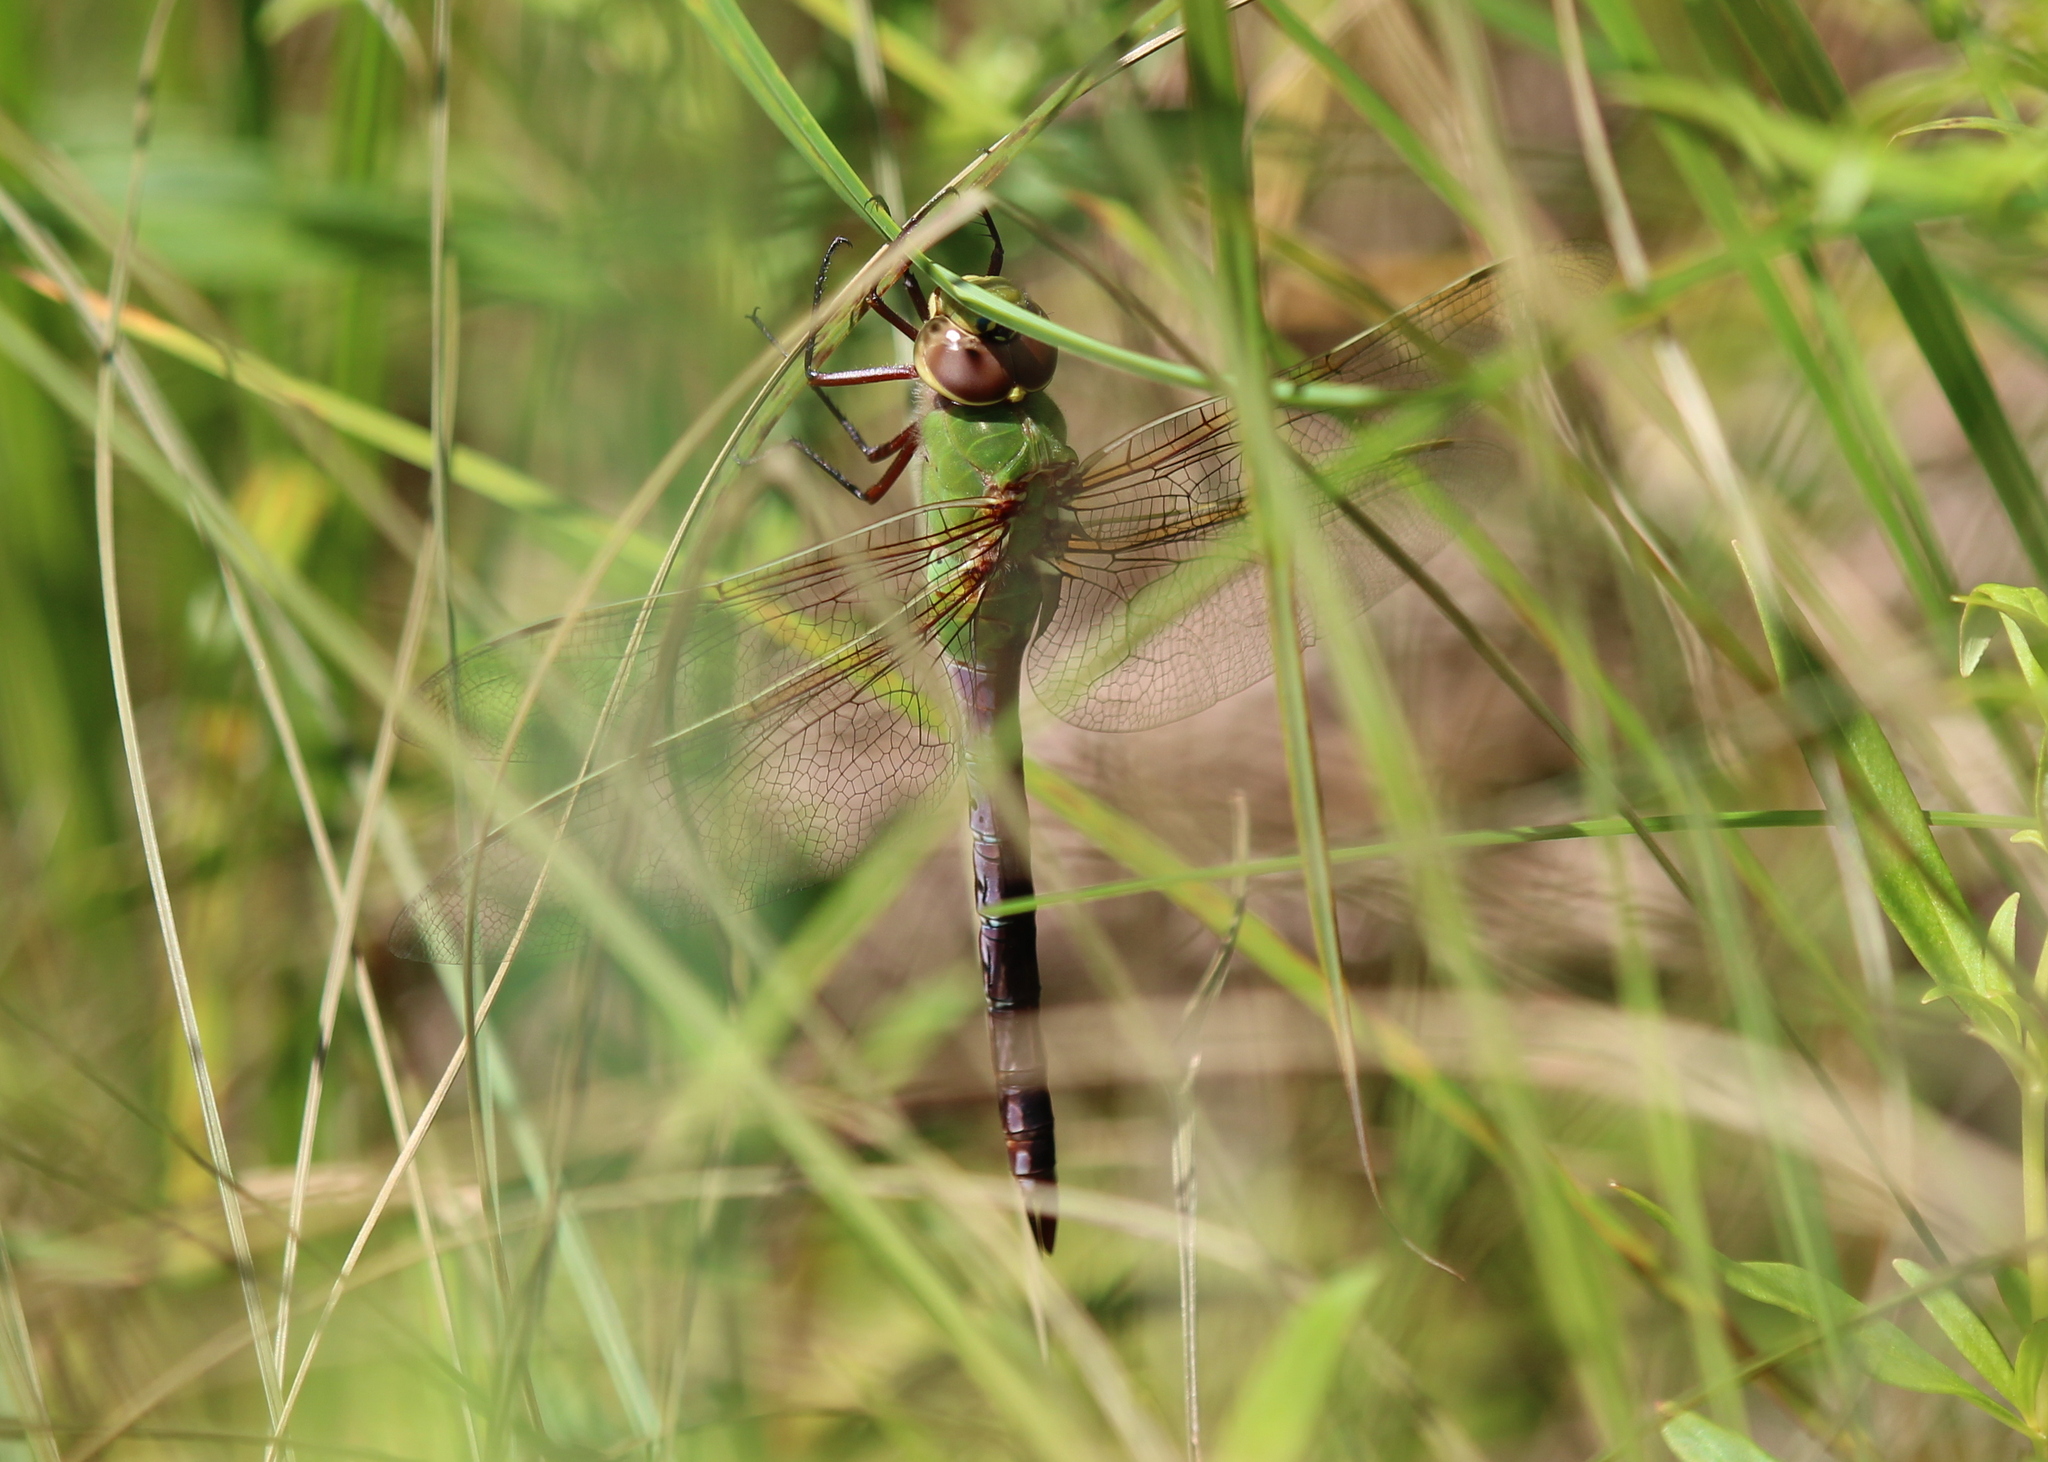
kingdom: Animalia
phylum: Arthropoda
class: Insecta
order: Odonata
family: Aeshnidae
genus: Anax
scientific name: Anax junius
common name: Common green darner
